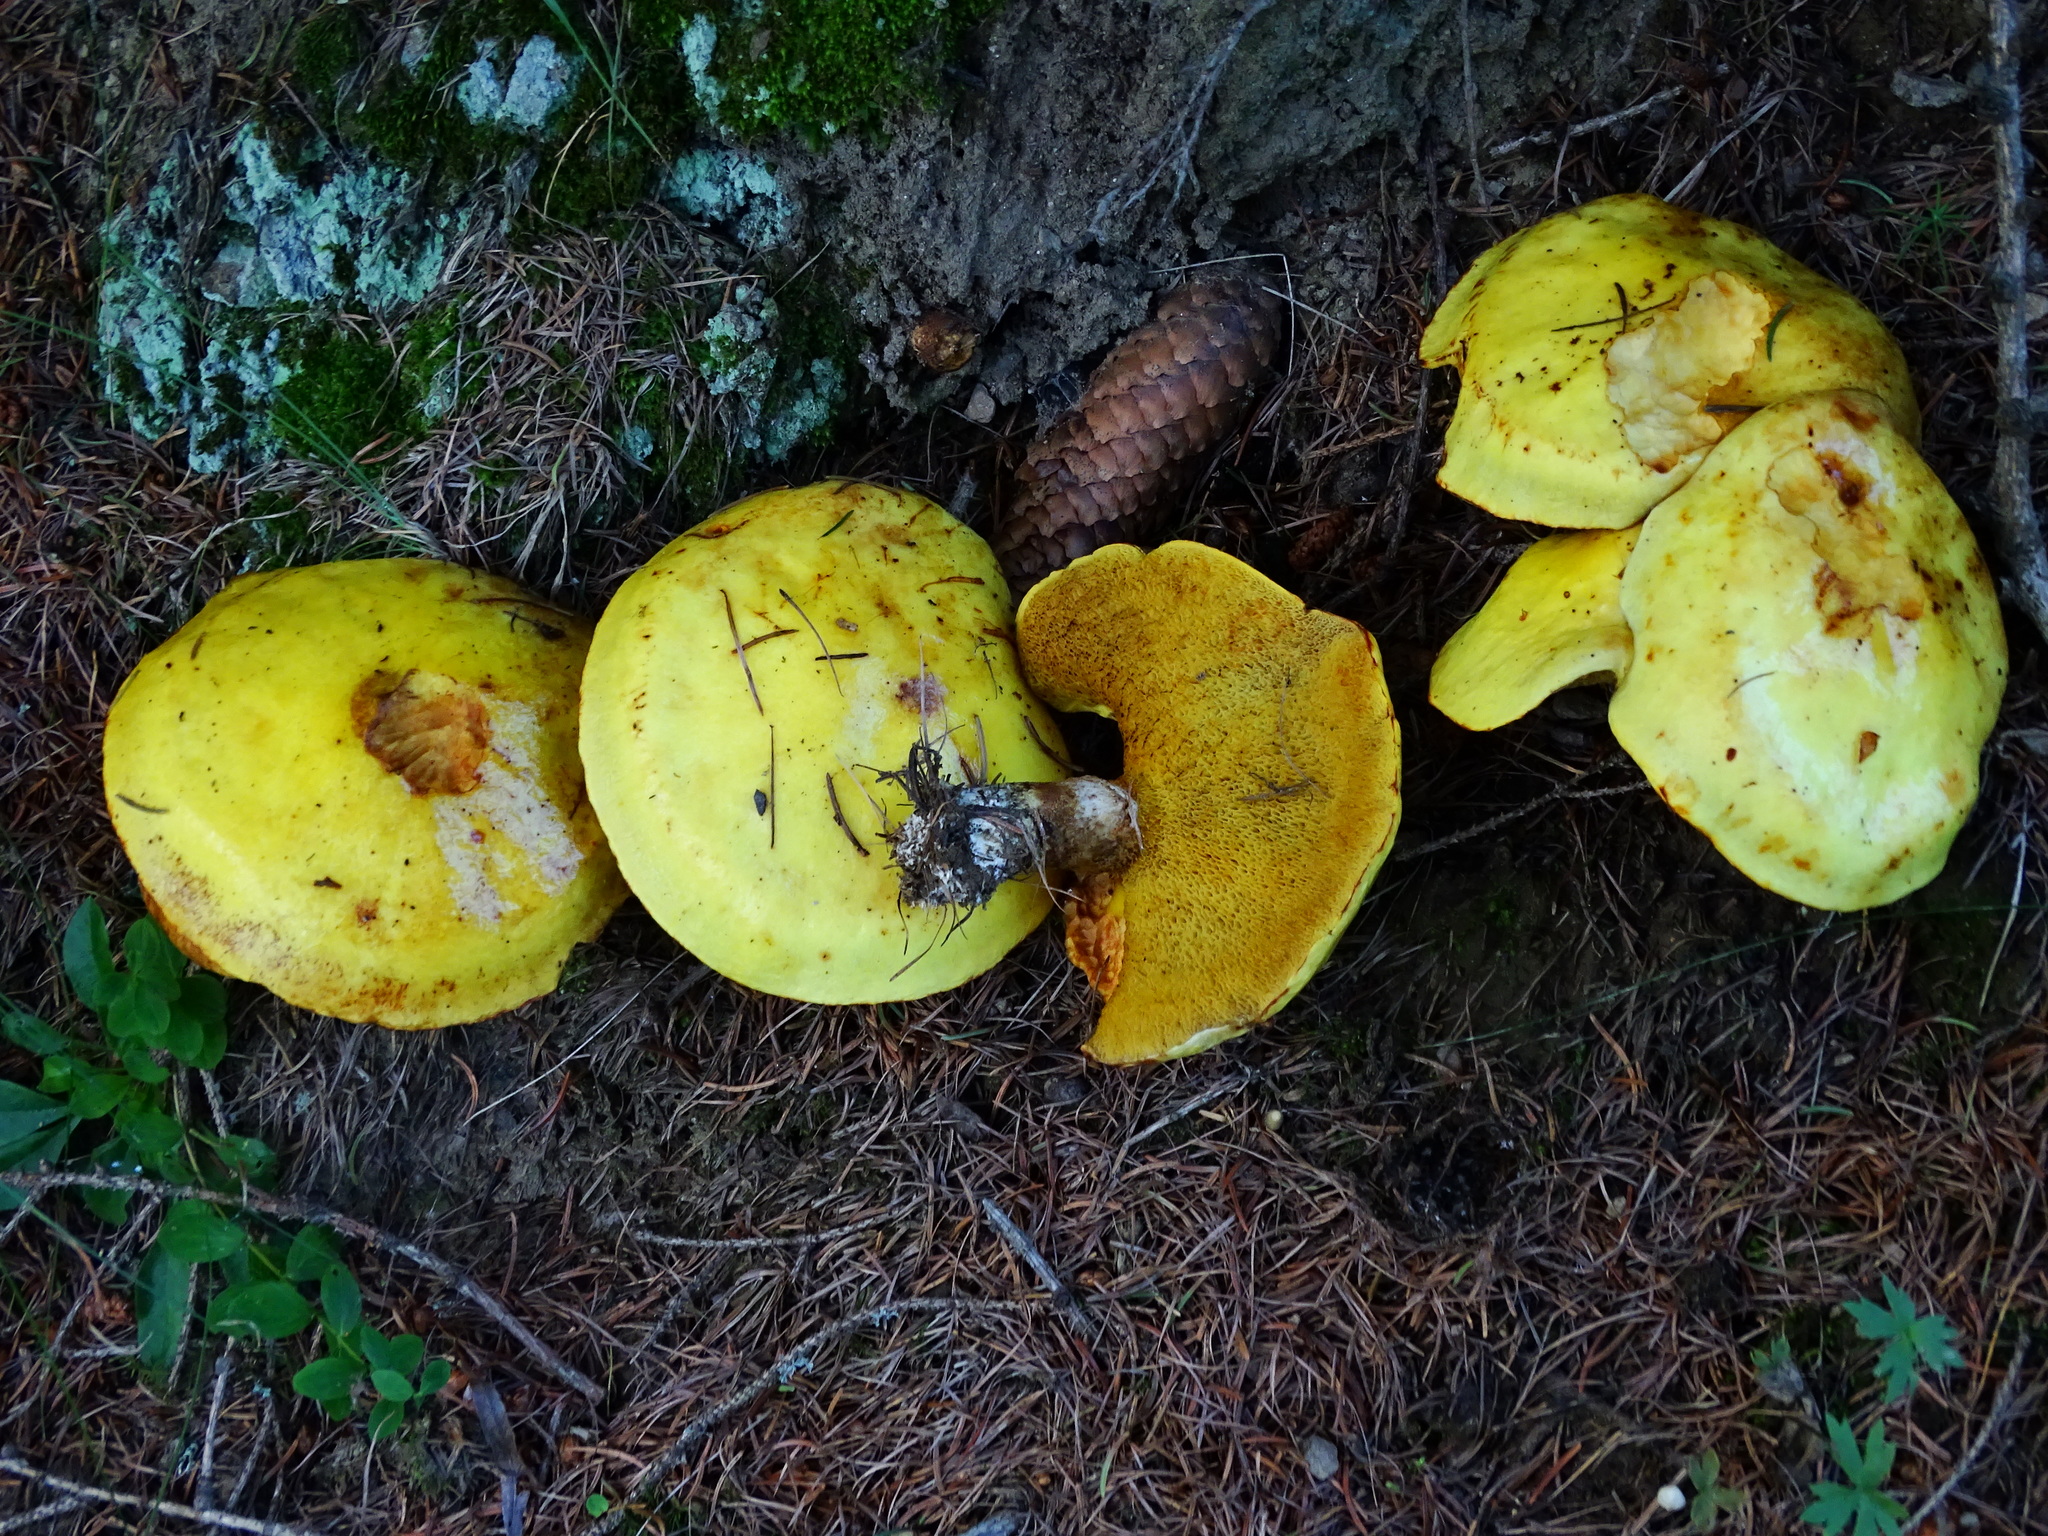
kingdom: Fungi
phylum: Basidiomycota
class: Agaricomycetes
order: Boletales
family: Suillaceae
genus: Suillus
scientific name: Suillus grevillei
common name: Larch bolete
